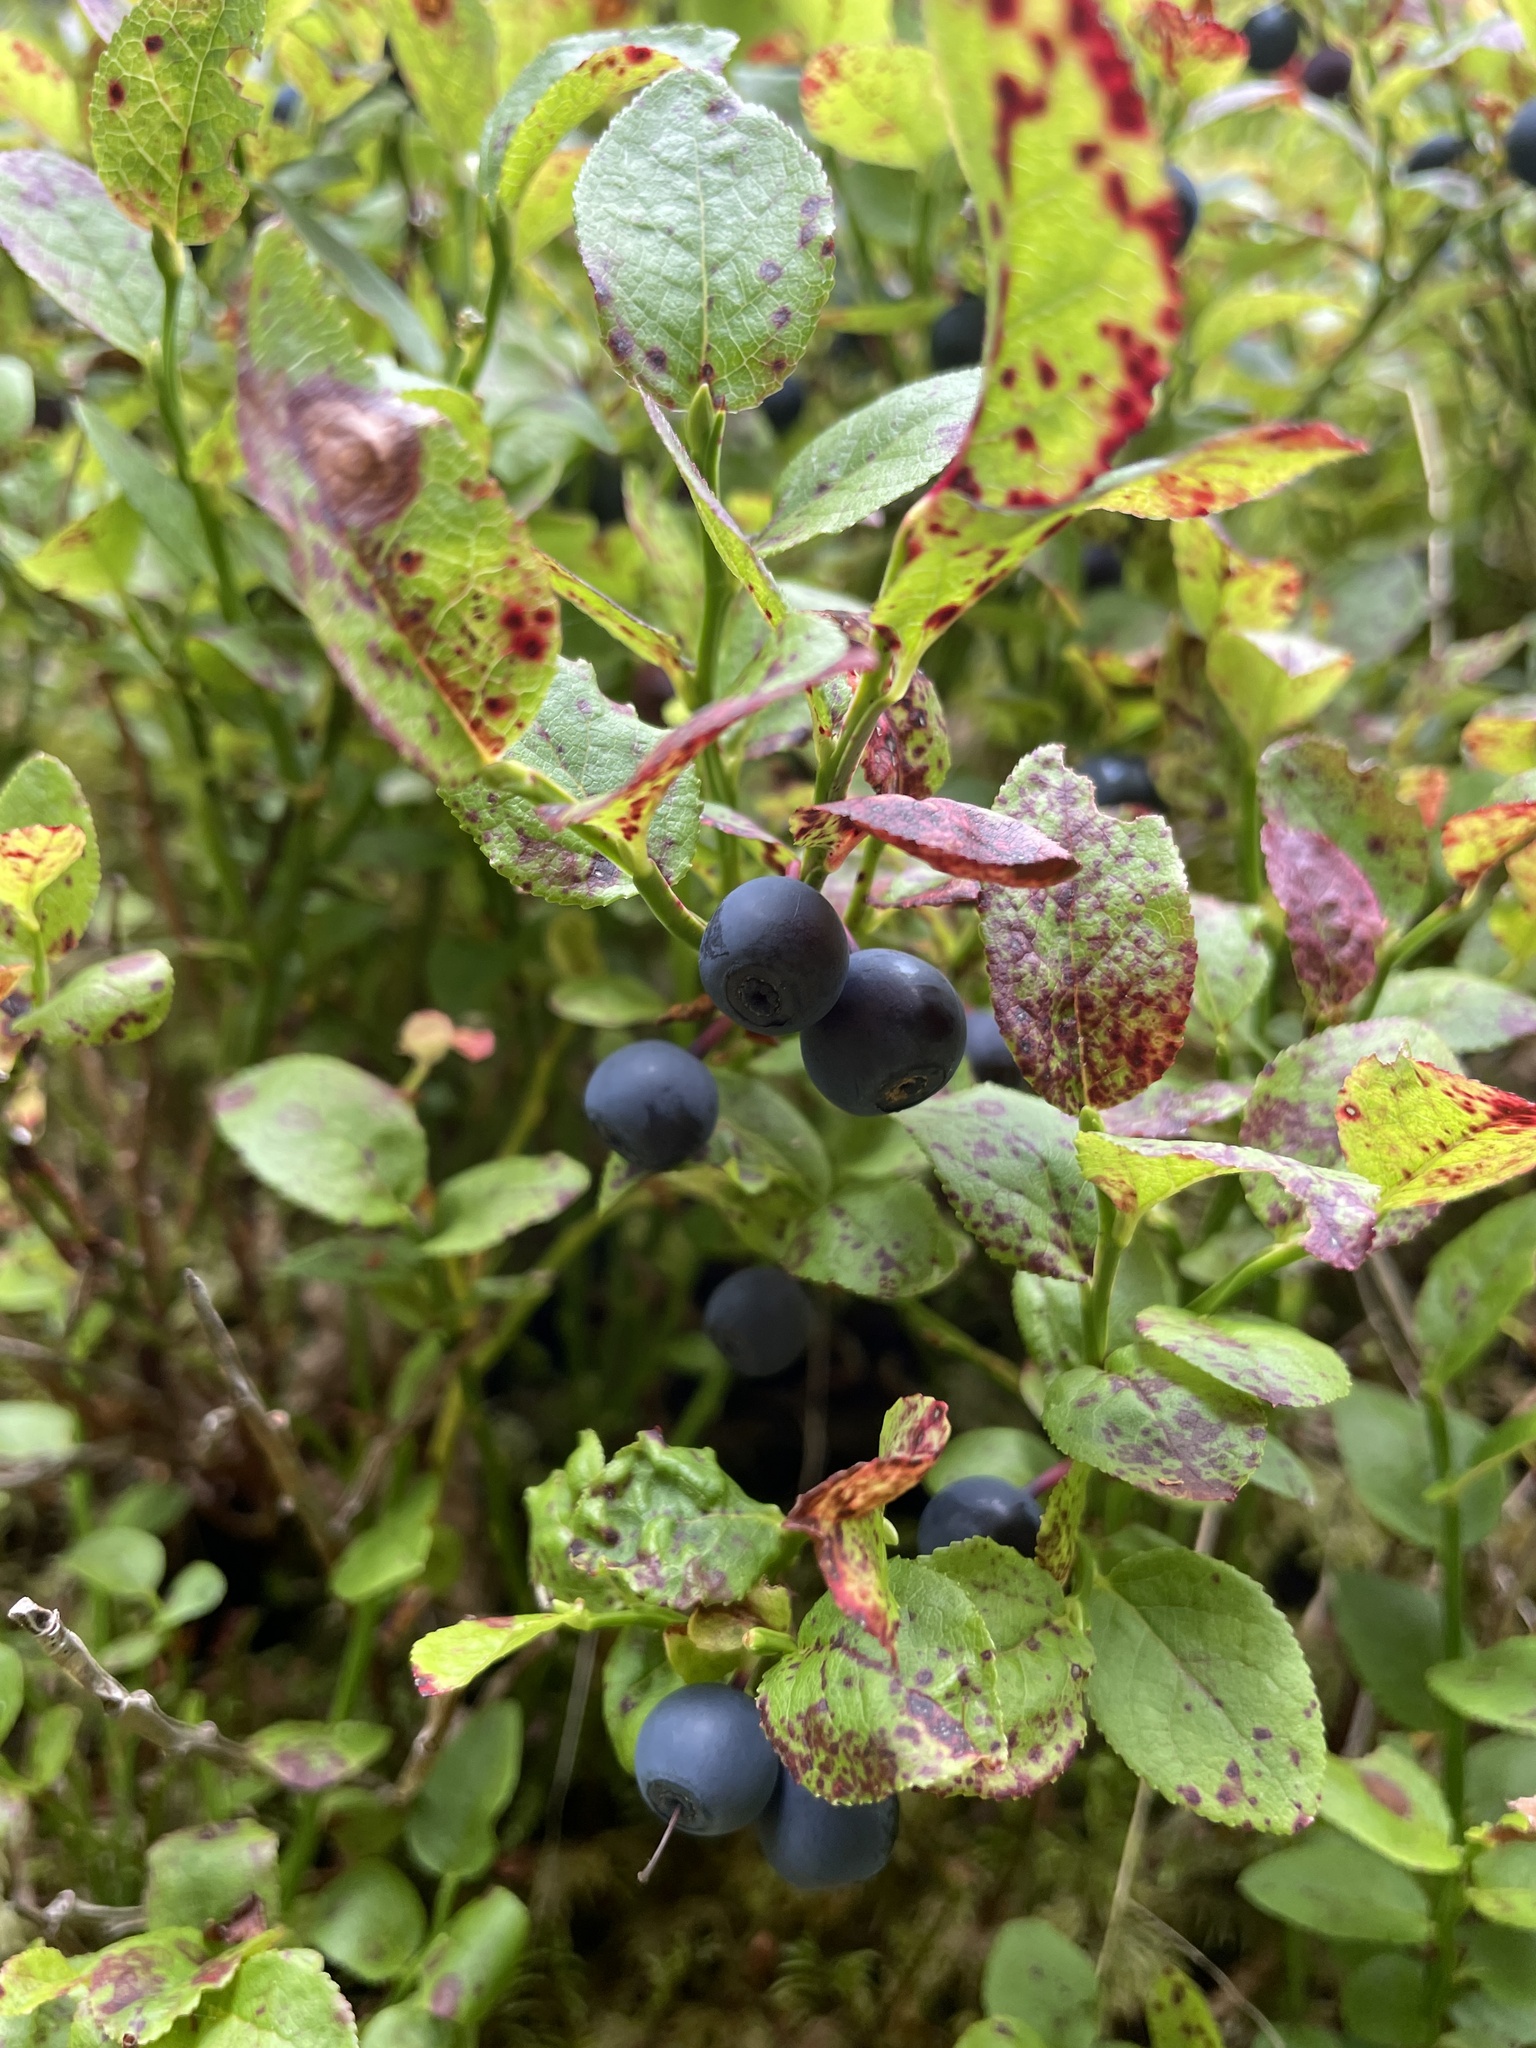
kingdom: Plantae
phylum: Tracheophyta
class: Magnoliopsida
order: Ericales
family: Ericaceae
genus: Vaccinium
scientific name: Vaccinium myrtillus
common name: Bilberry
